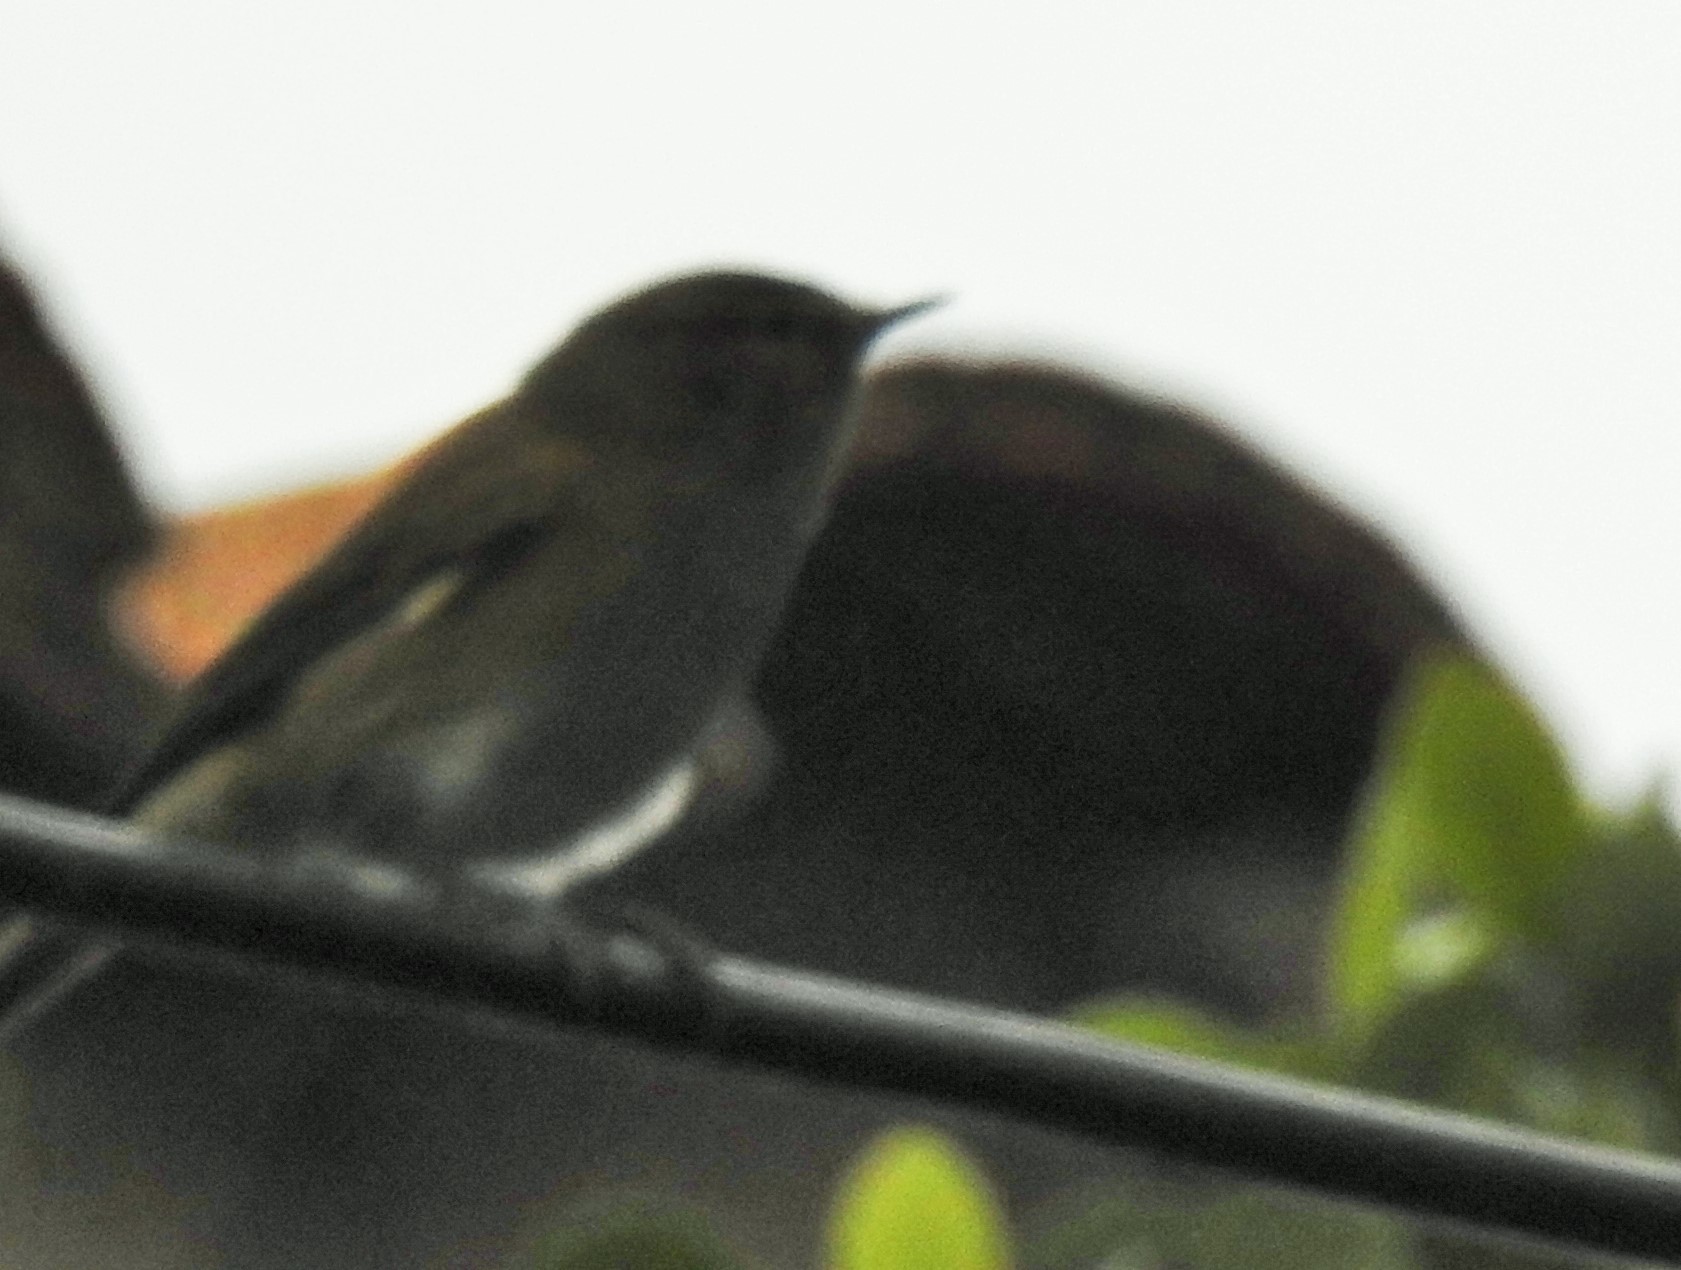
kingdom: Animalia
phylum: Chordata
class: Aves
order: Passeriformes
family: Phylloscopidae
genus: Phylloscopus
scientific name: Phylloscopus collybita
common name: Common chiffchaff
